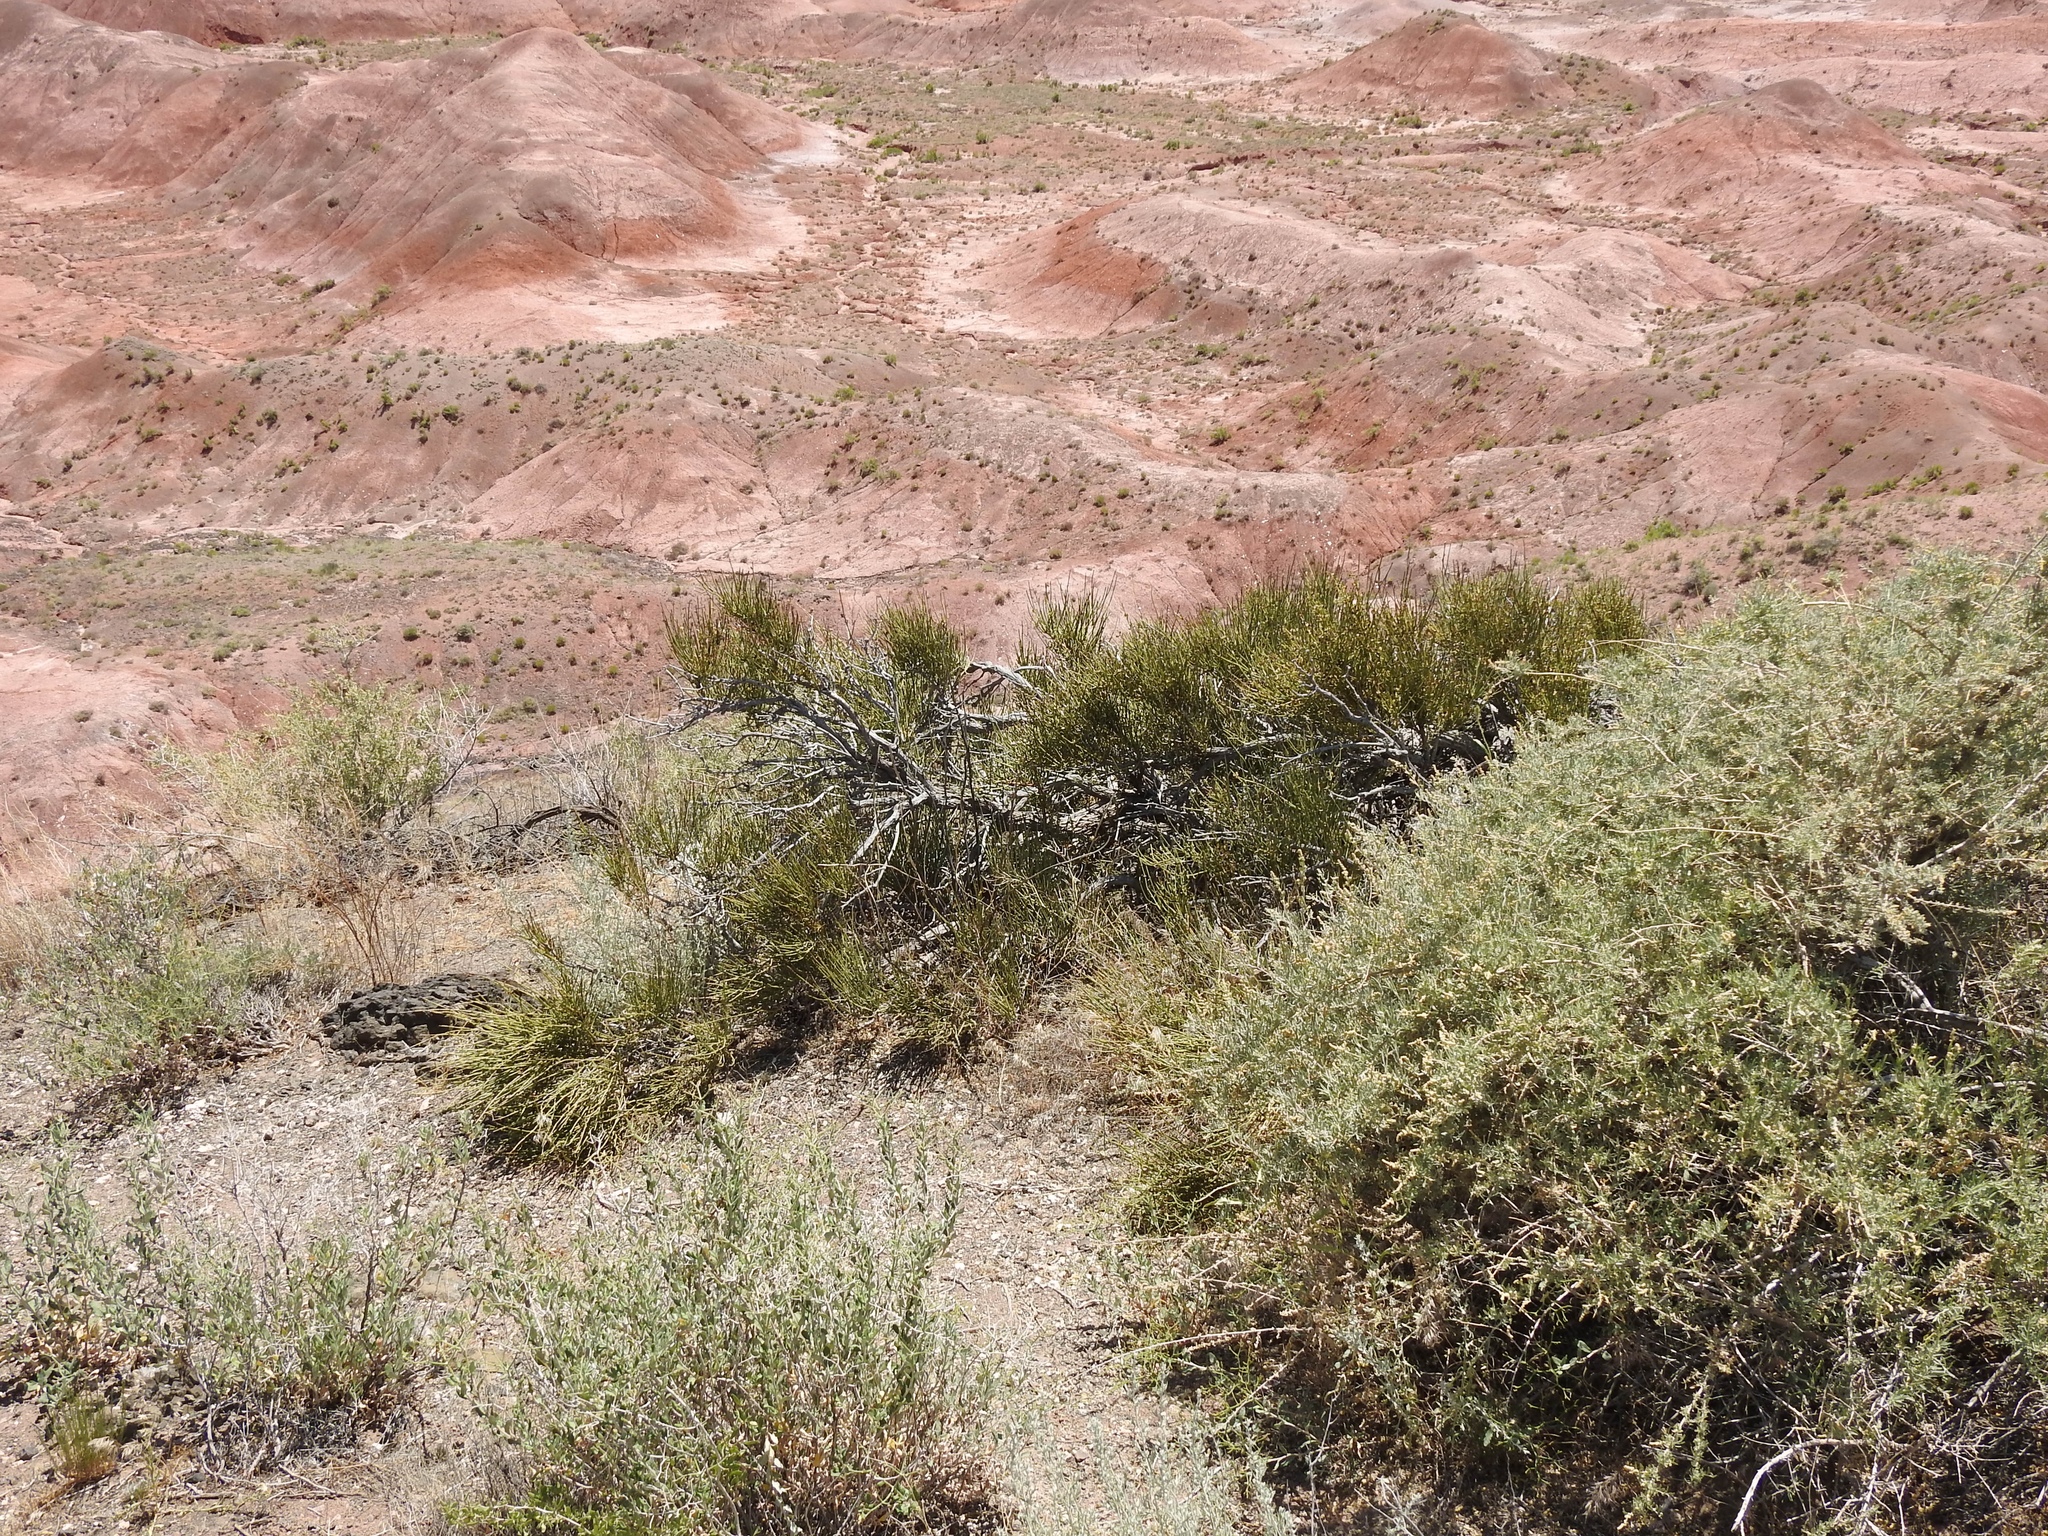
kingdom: Plantae
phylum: Tracheophyta
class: Gnetopsida
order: Ephedrales
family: Ephedraceae
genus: Ephedra
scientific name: Ephedra viridis
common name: Green ephedra
